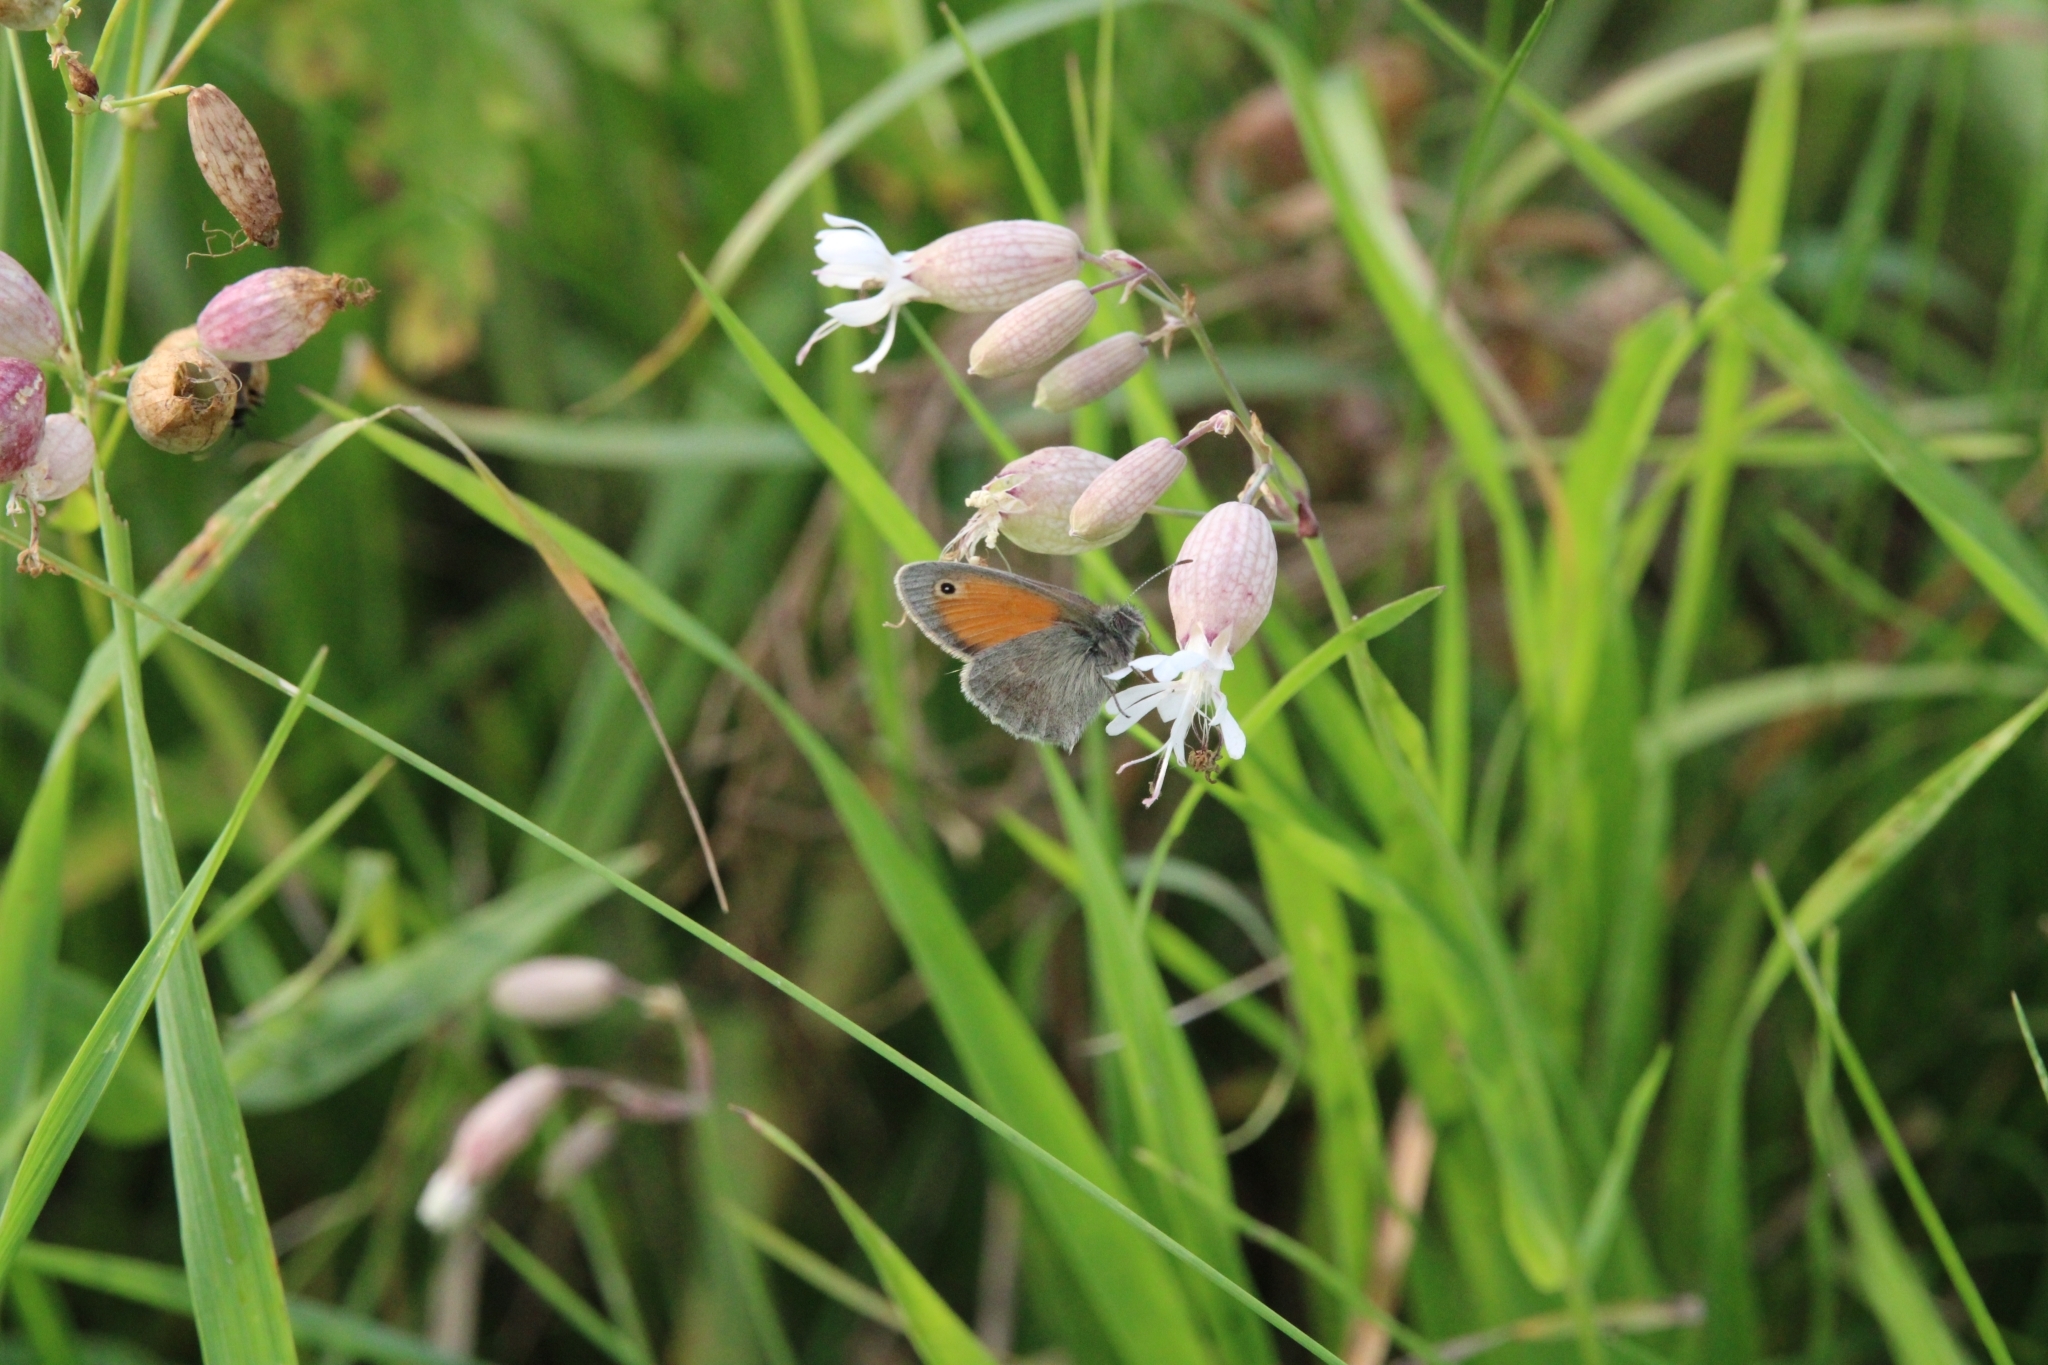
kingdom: Animalia
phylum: Arthropoda
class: Insecta
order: Lepidoptera
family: Nymphalidae
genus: Coenonympha
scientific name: Coenonympha pamphilus
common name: Small heath
